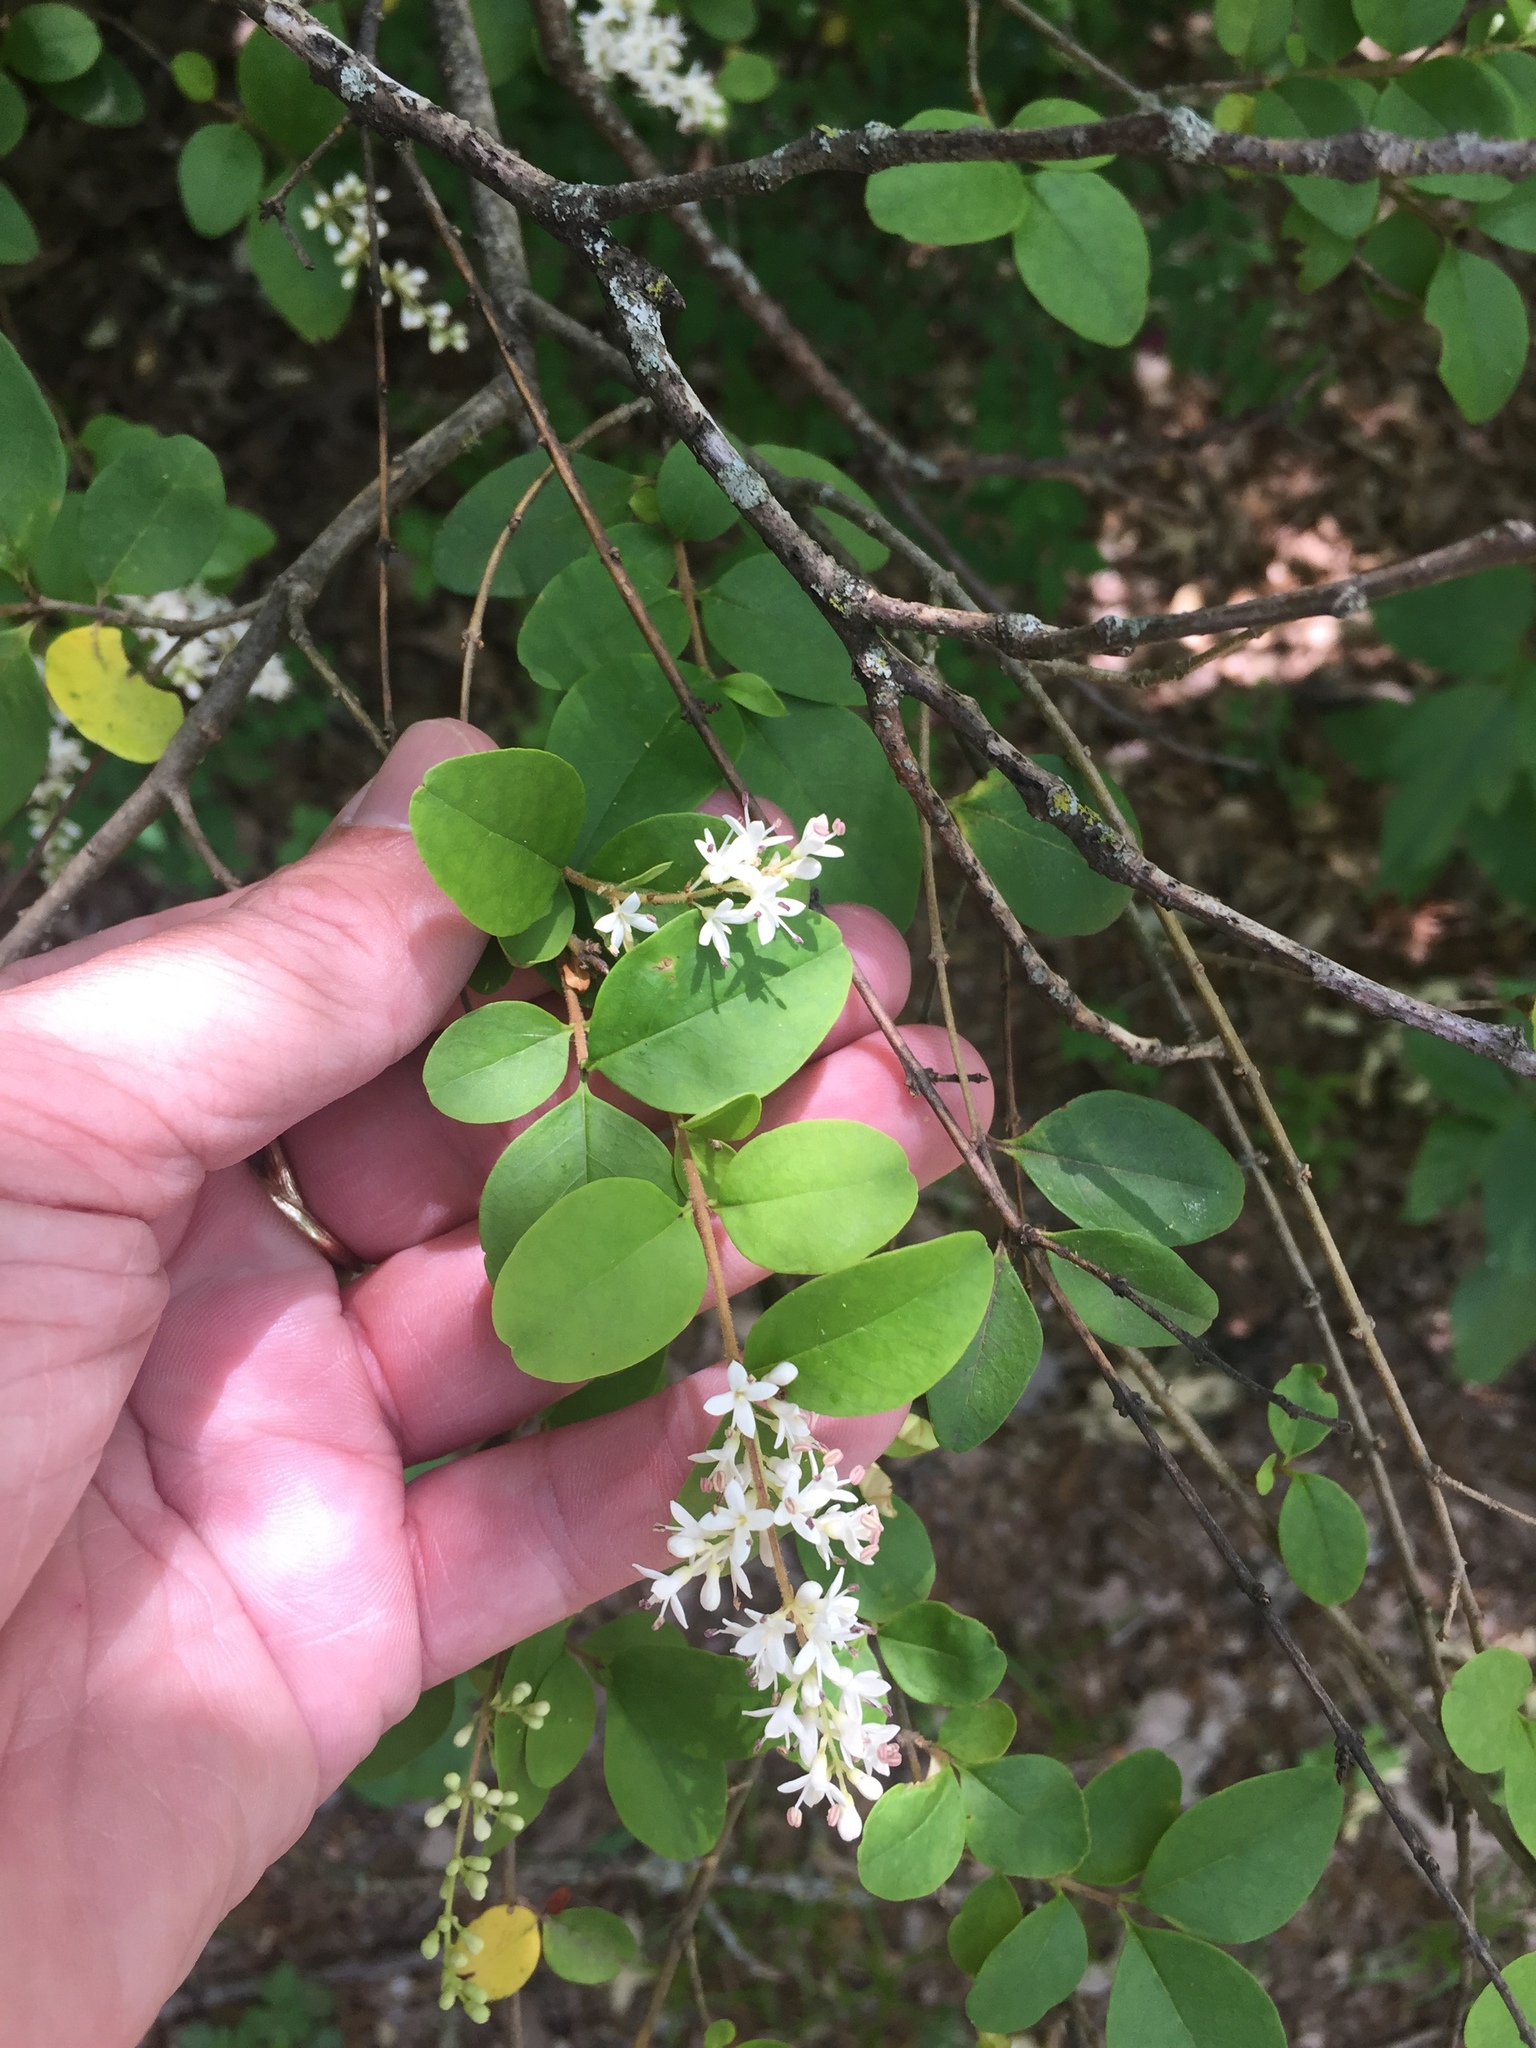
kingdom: Plantae
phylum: Tracheophyta
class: Magnoliopsida
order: Lamiales
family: Oleaceae
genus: Ligustrum
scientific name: Ligustrum sinense
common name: Chinese privet
